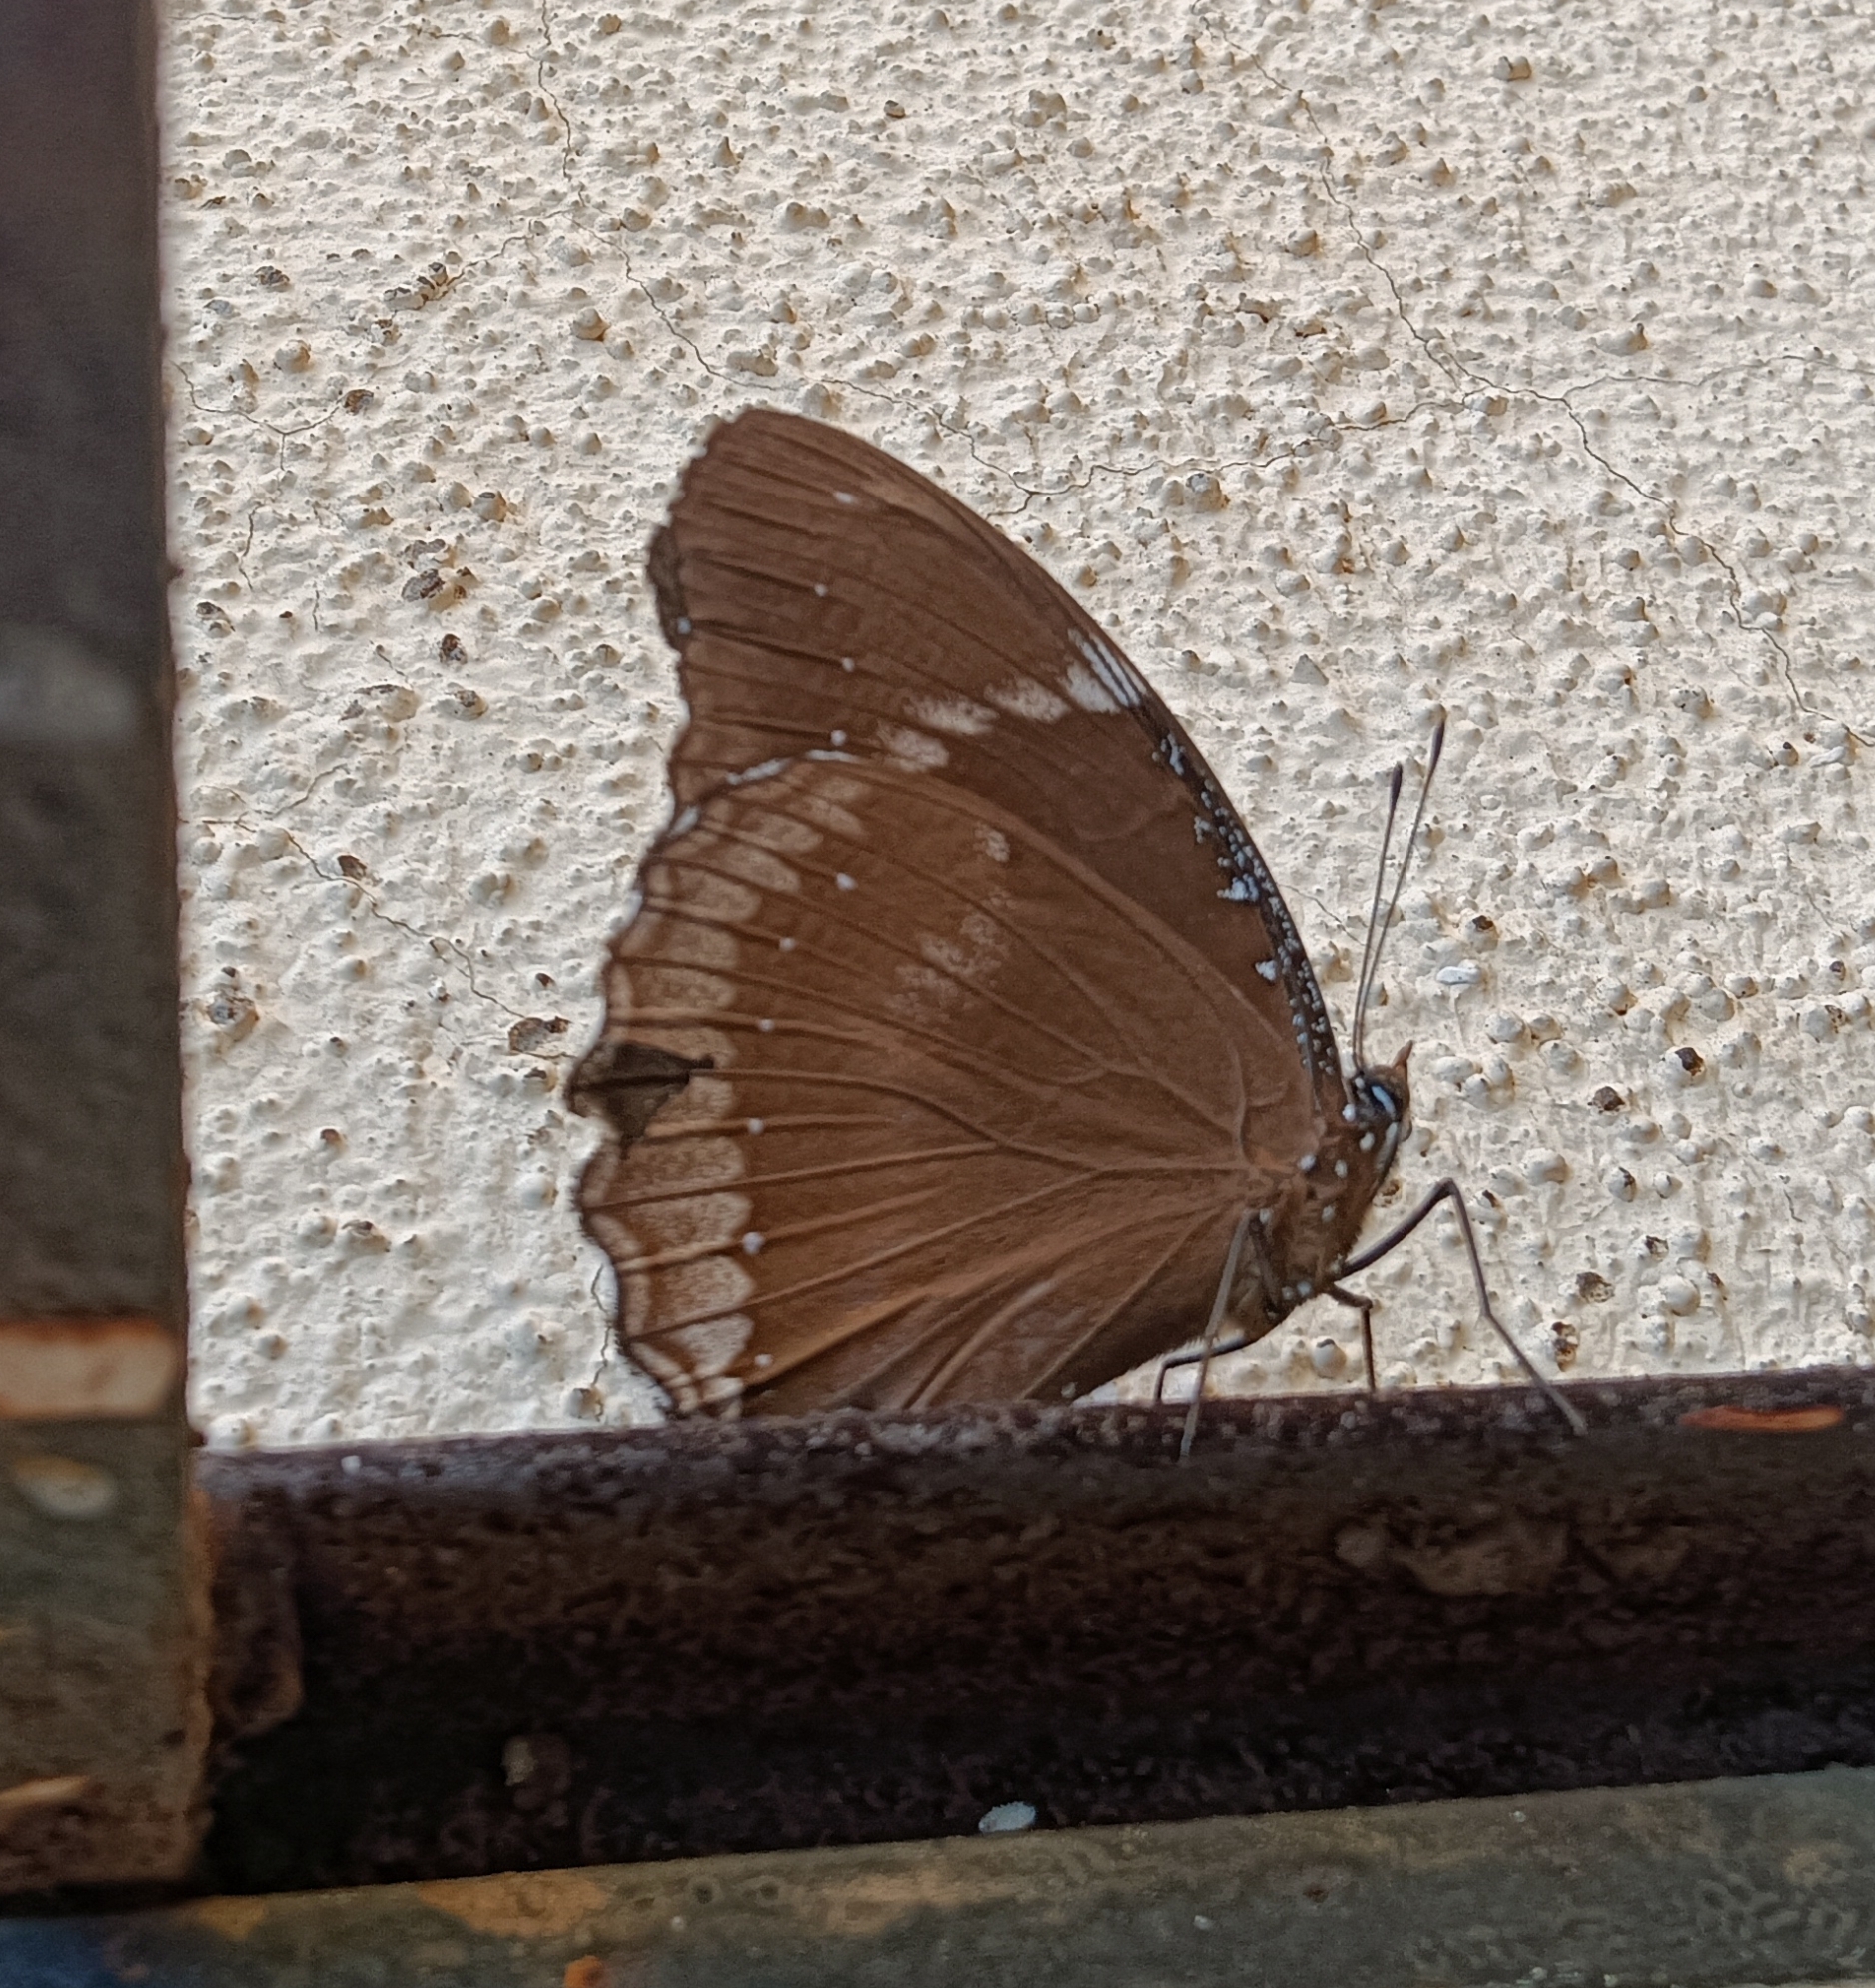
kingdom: Animalia
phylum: Arthropoda
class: Insecta
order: Lepidoptera
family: Nymphalidae
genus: Hypolimnas
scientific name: Hypolimnas bolina
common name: Great eggfly
